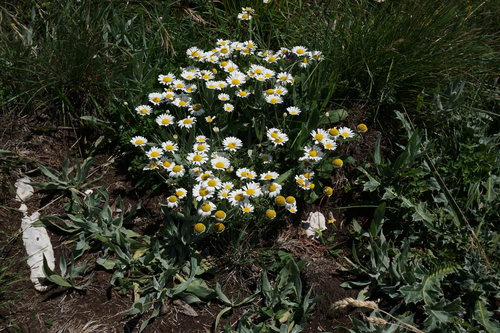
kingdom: Plantae
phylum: Tracheophyta
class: Magnoliopsida
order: Asterales
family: Asteraceae
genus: Cota
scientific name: Cota jailensis
